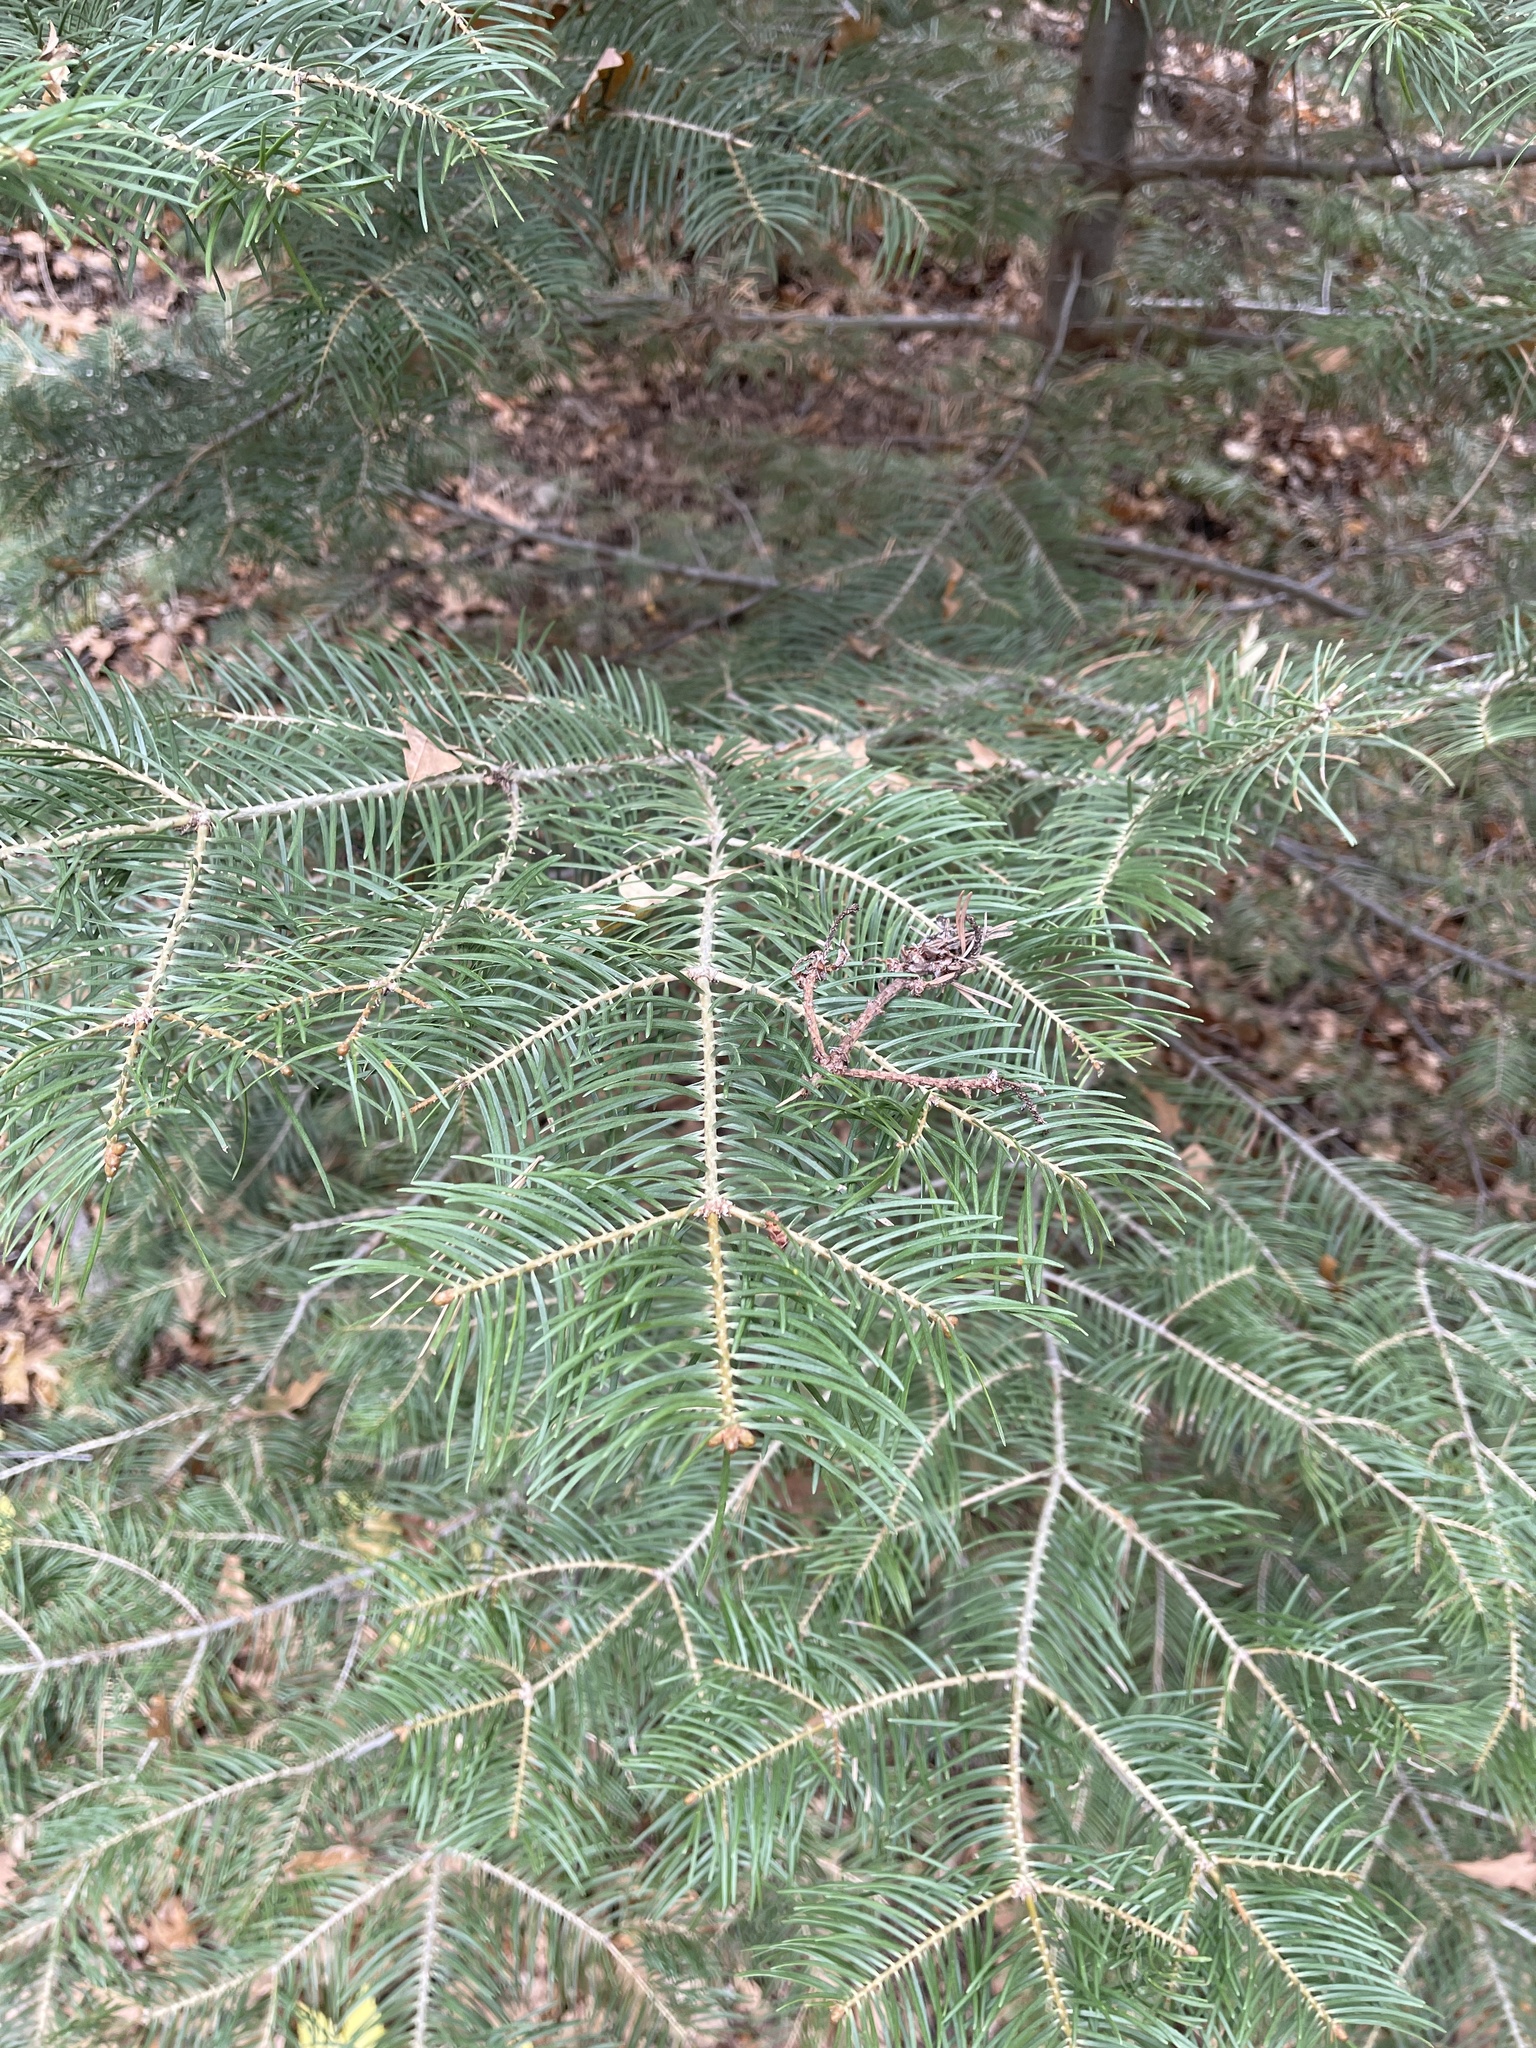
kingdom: Plantae
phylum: Tracheophyta
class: Pinopsida
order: Pinales
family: Pinaceae
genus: Abies
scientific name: Abies concolor
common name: Colorado fir
